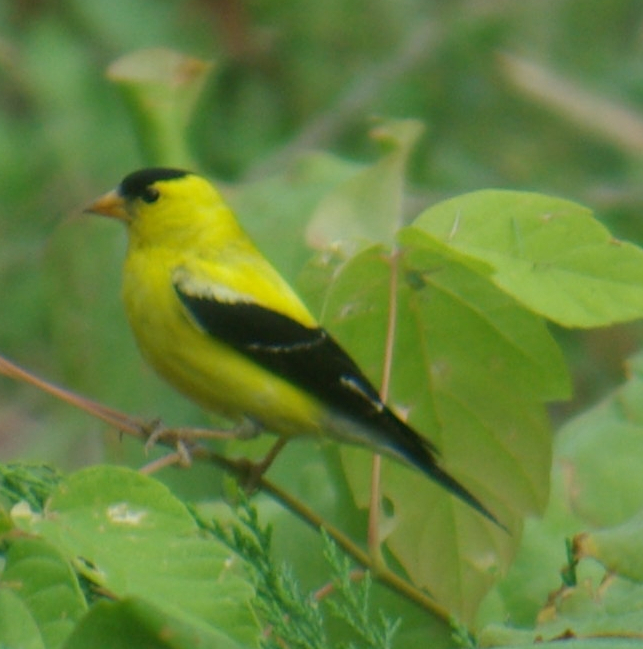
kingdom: Animalia
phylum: Chordata
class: Aves
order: Passeriformes
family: Fringillidae
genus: Spinus
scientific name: Spinus tristis
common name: American goldfinch
